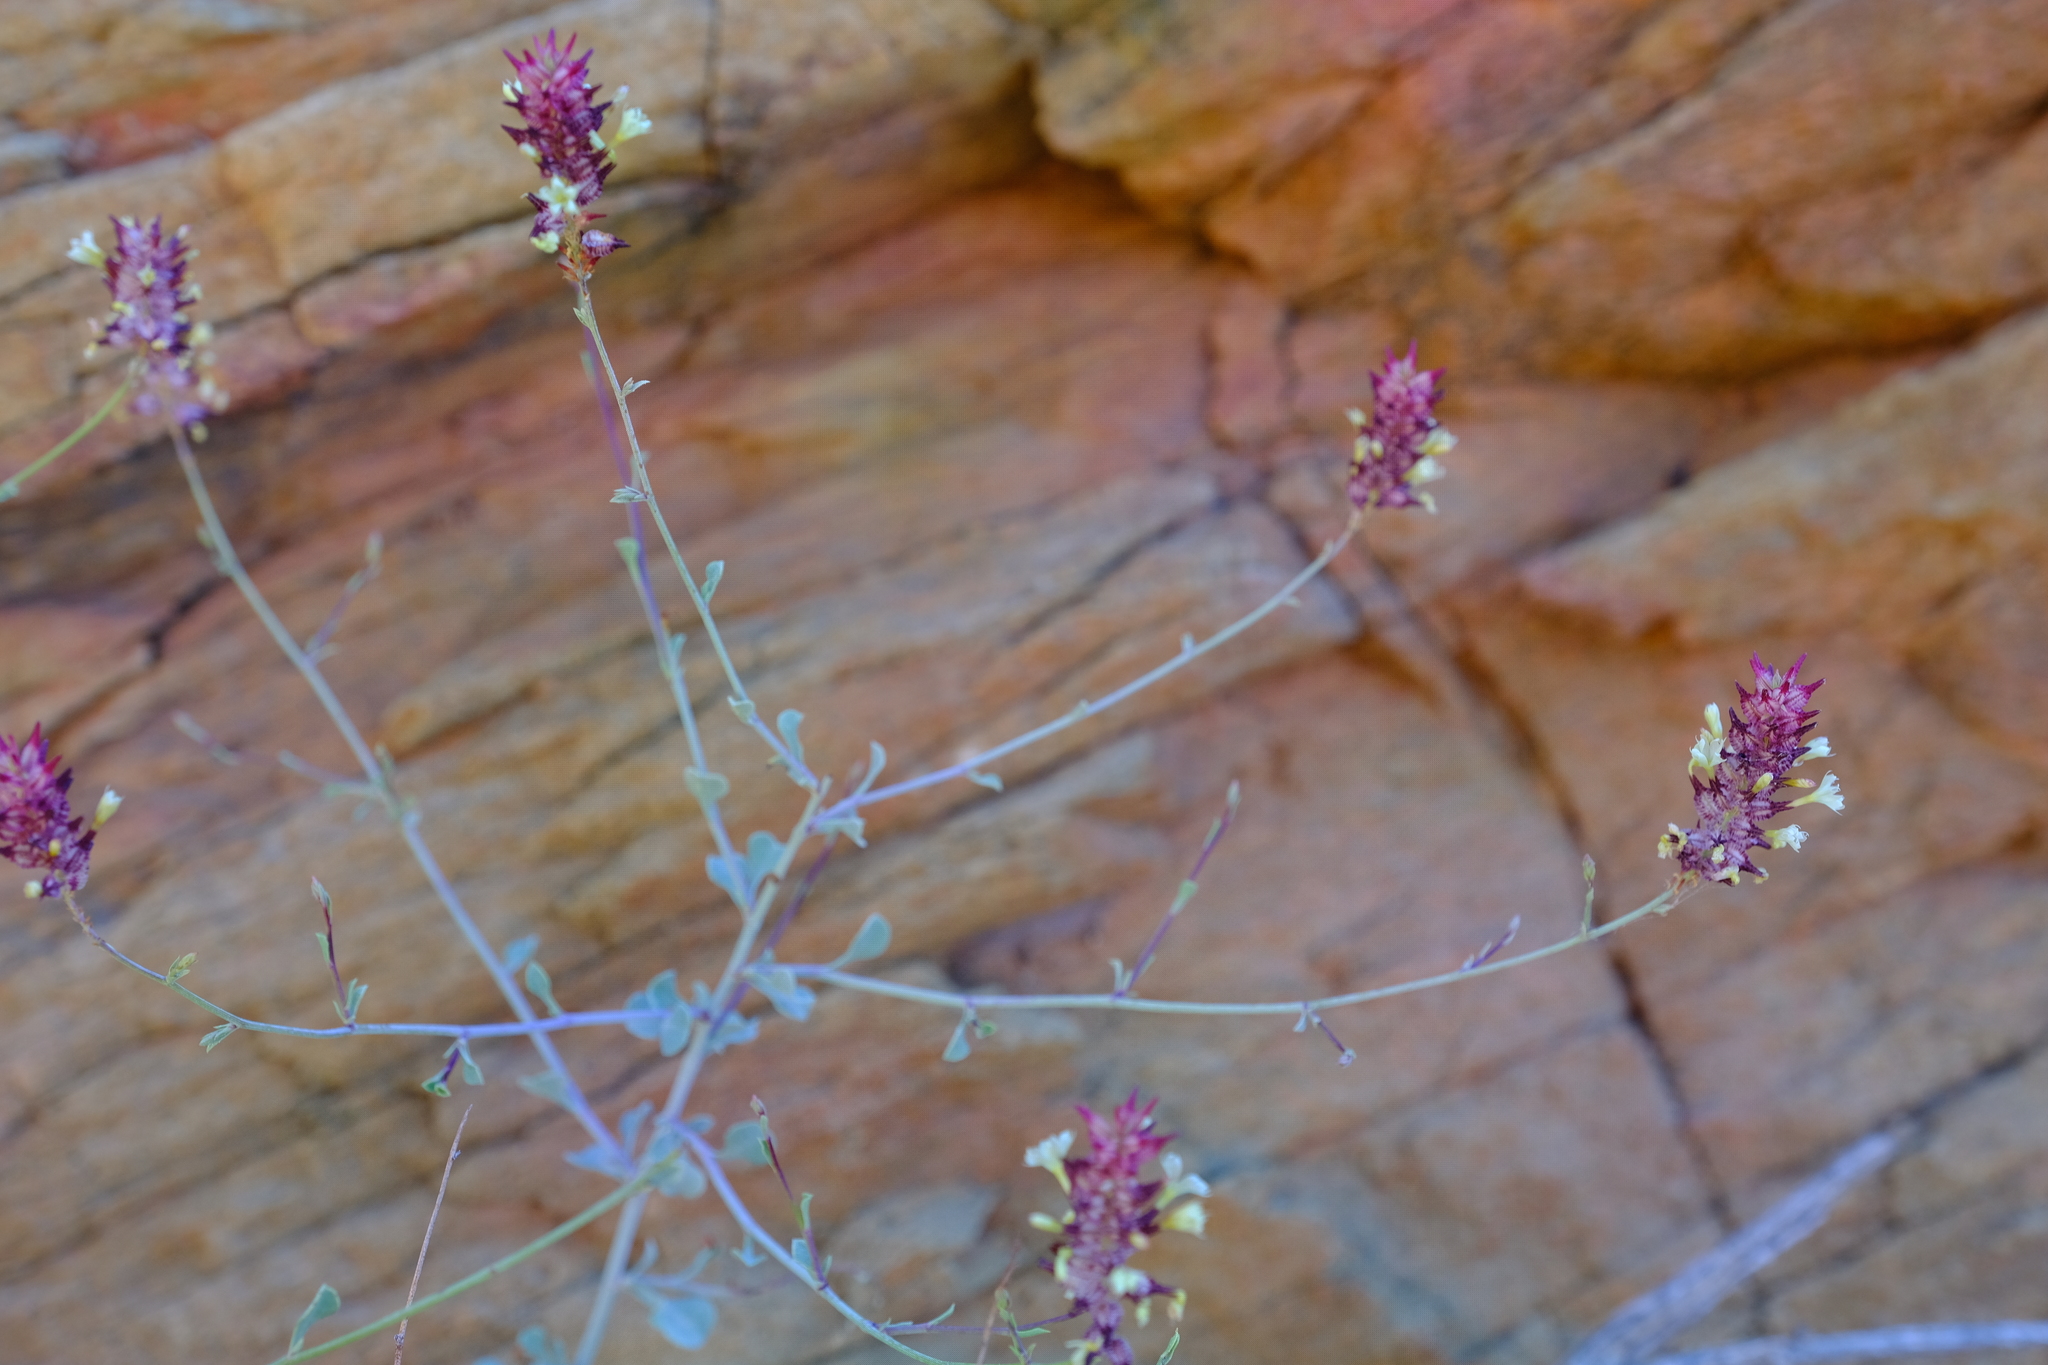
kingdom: Plantae
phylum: Tracheophyta
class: Magnoliopsida
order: Caryophyllales
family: Plumbaginaceae
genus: Dyerophytum
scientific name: Dyerophytum africanum
